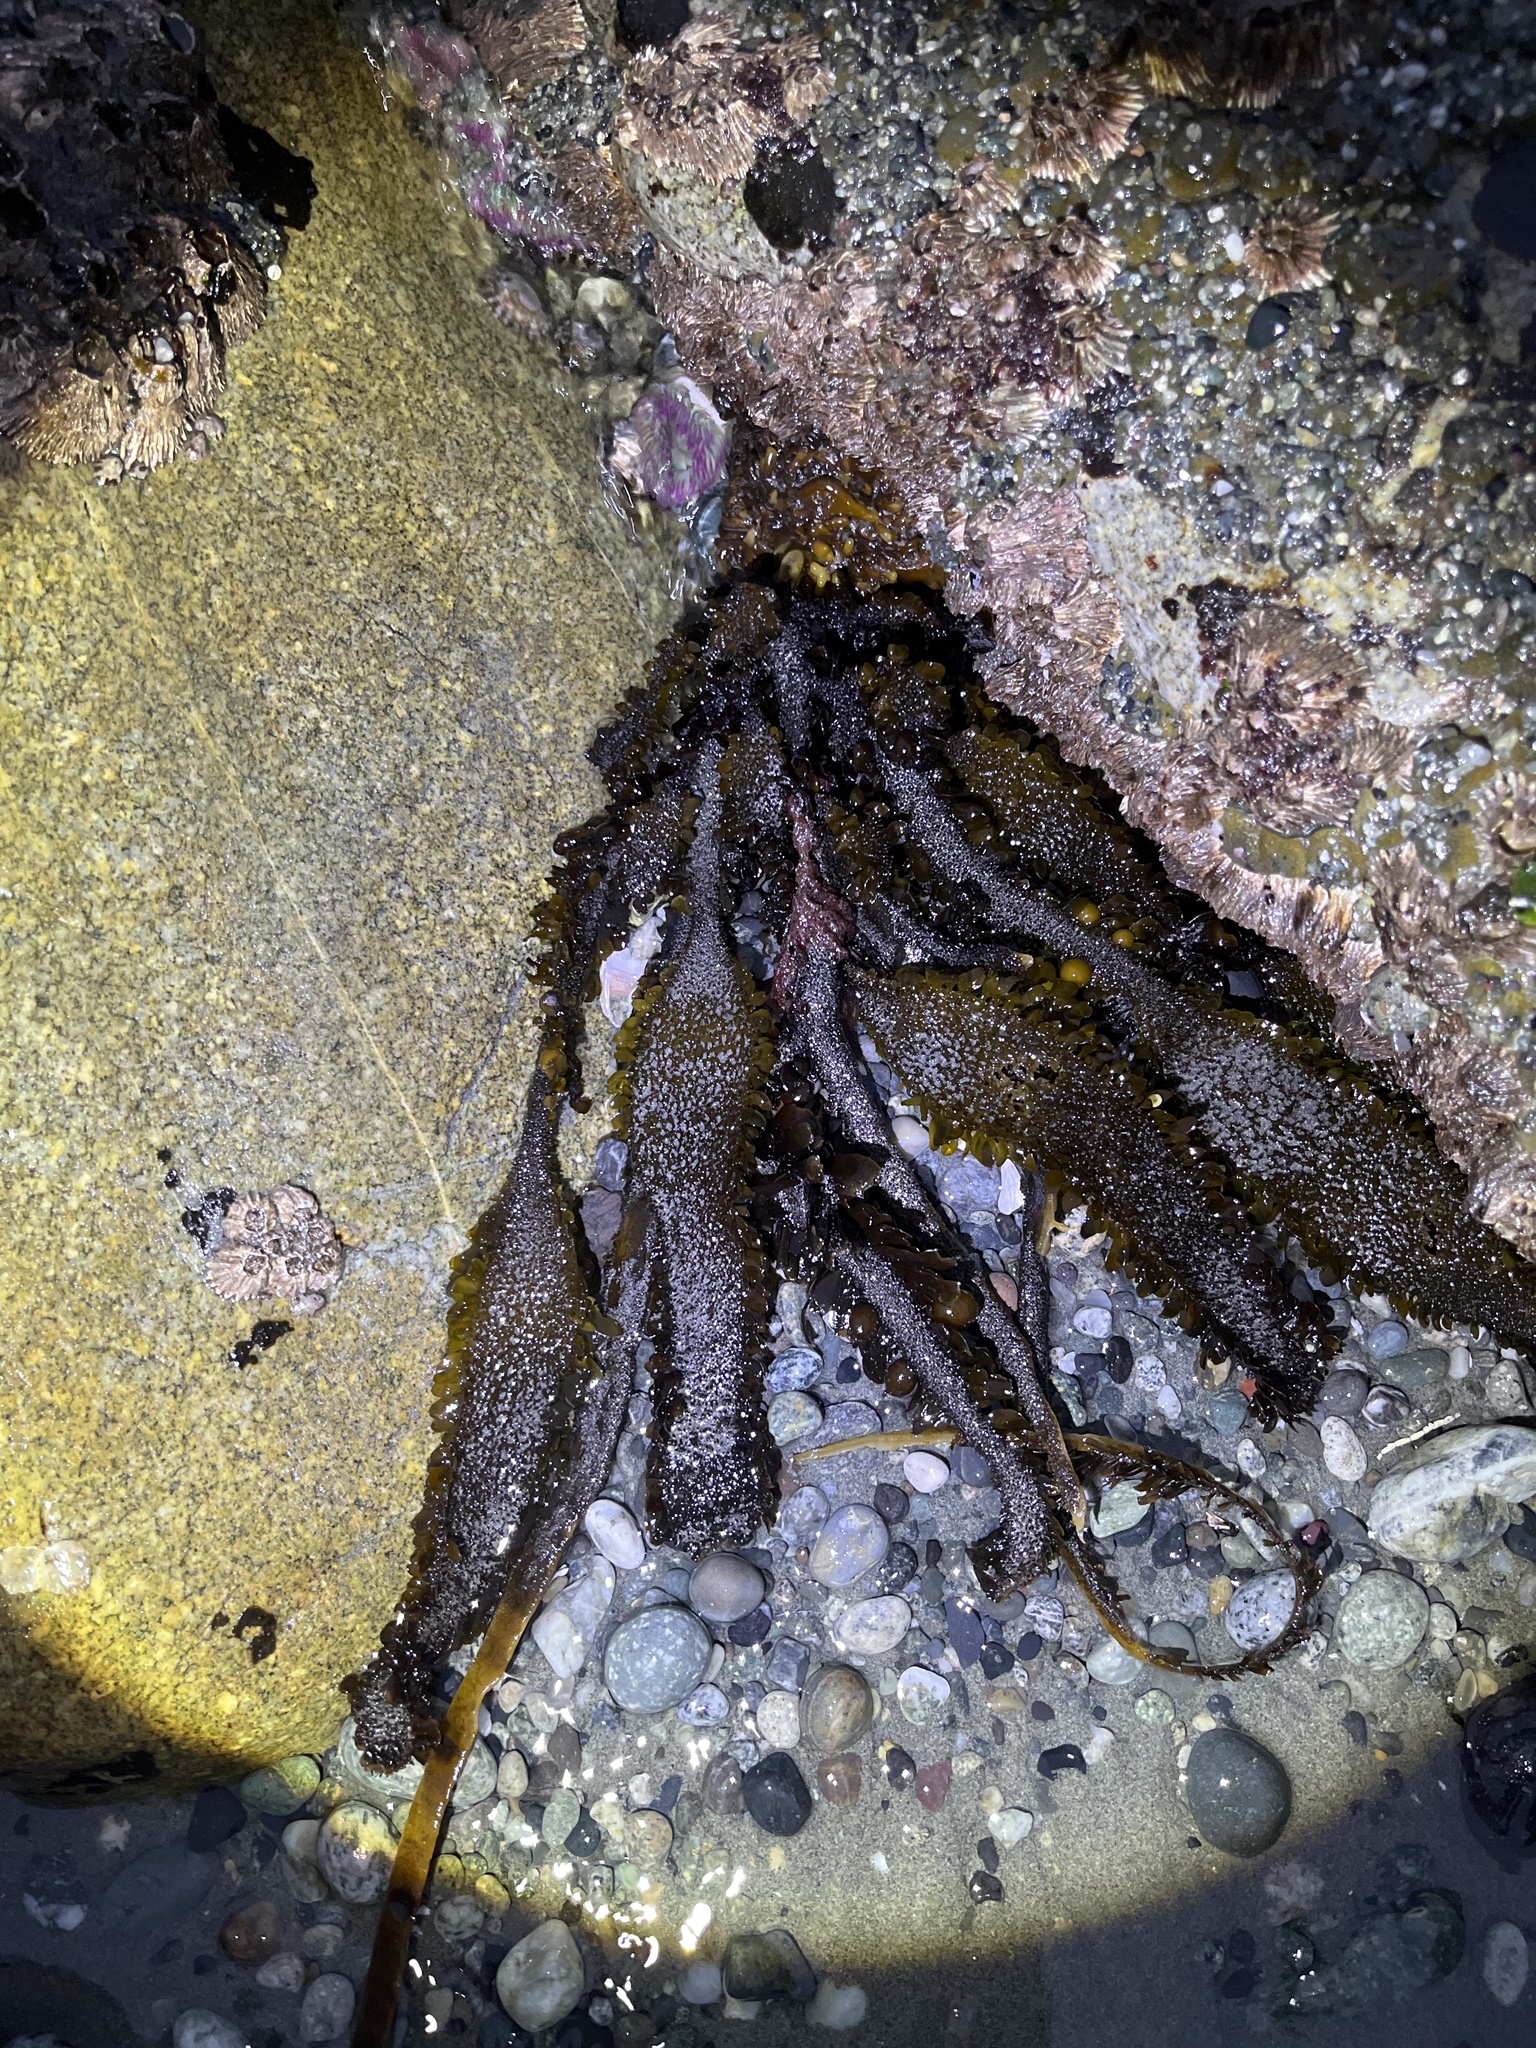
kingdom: Chromista
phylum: Ochrophyta
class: Phaeophyceae
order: Laminariales
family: Lessoniaceae
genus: Egregia
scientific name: Egregia menziesii
